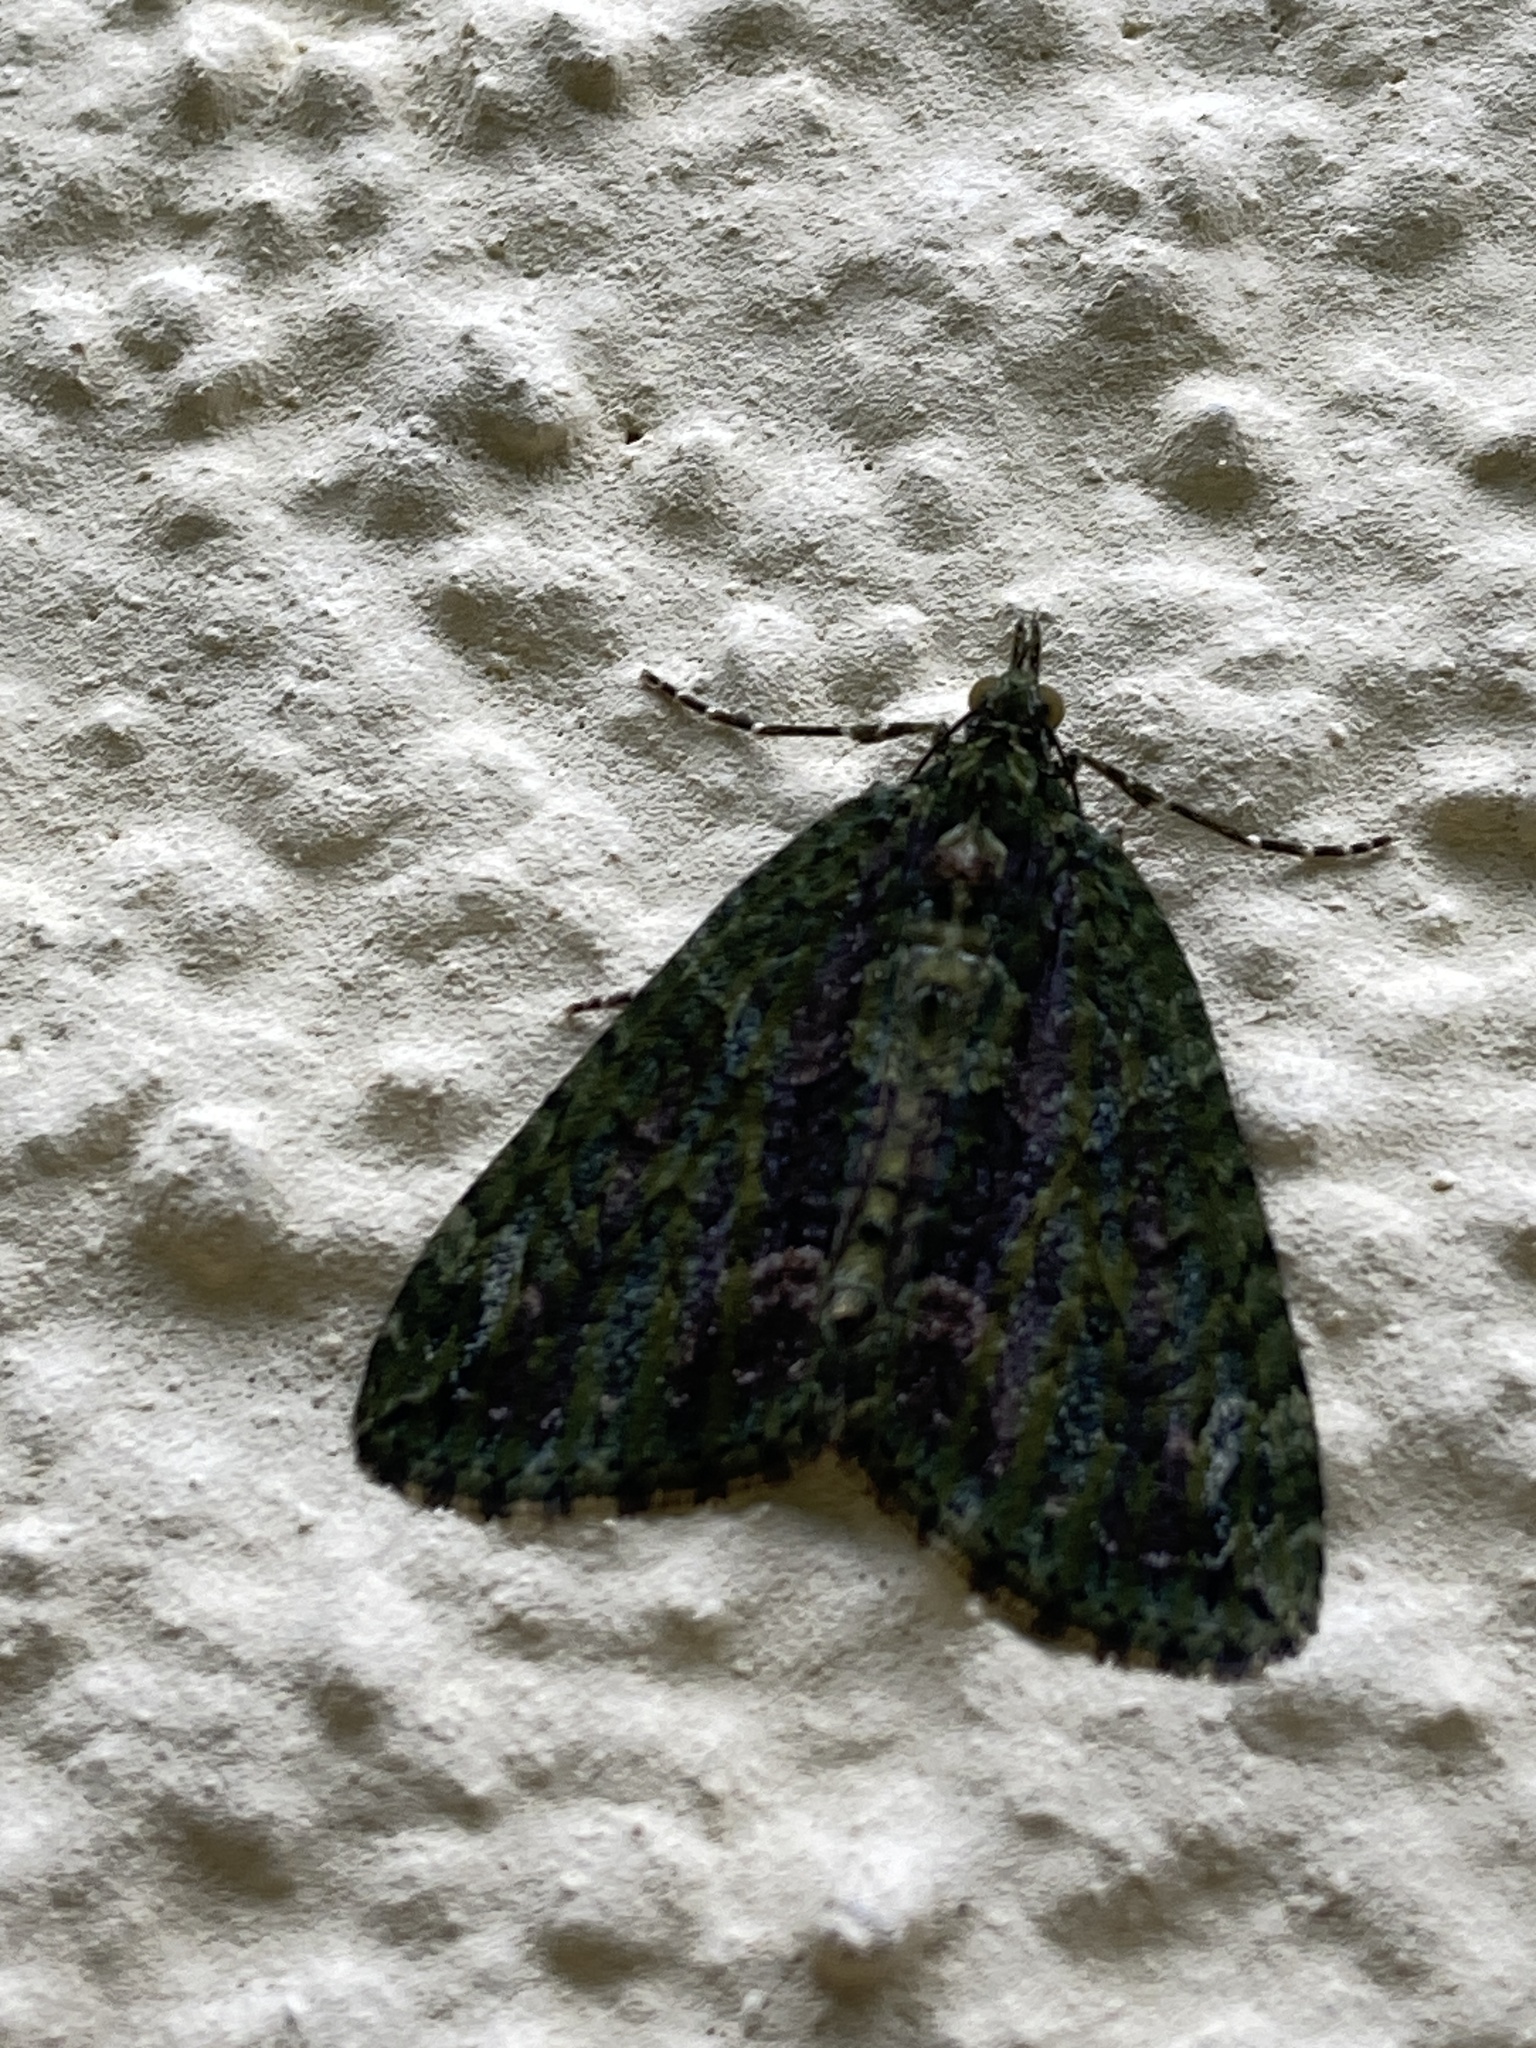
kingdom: Animalia
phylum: Arthropoda
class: Insecta
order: Lepidoptera
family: Geometridae
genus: Chloroclysta
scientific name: Chloroclysta siterata
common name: Red-green carpet
